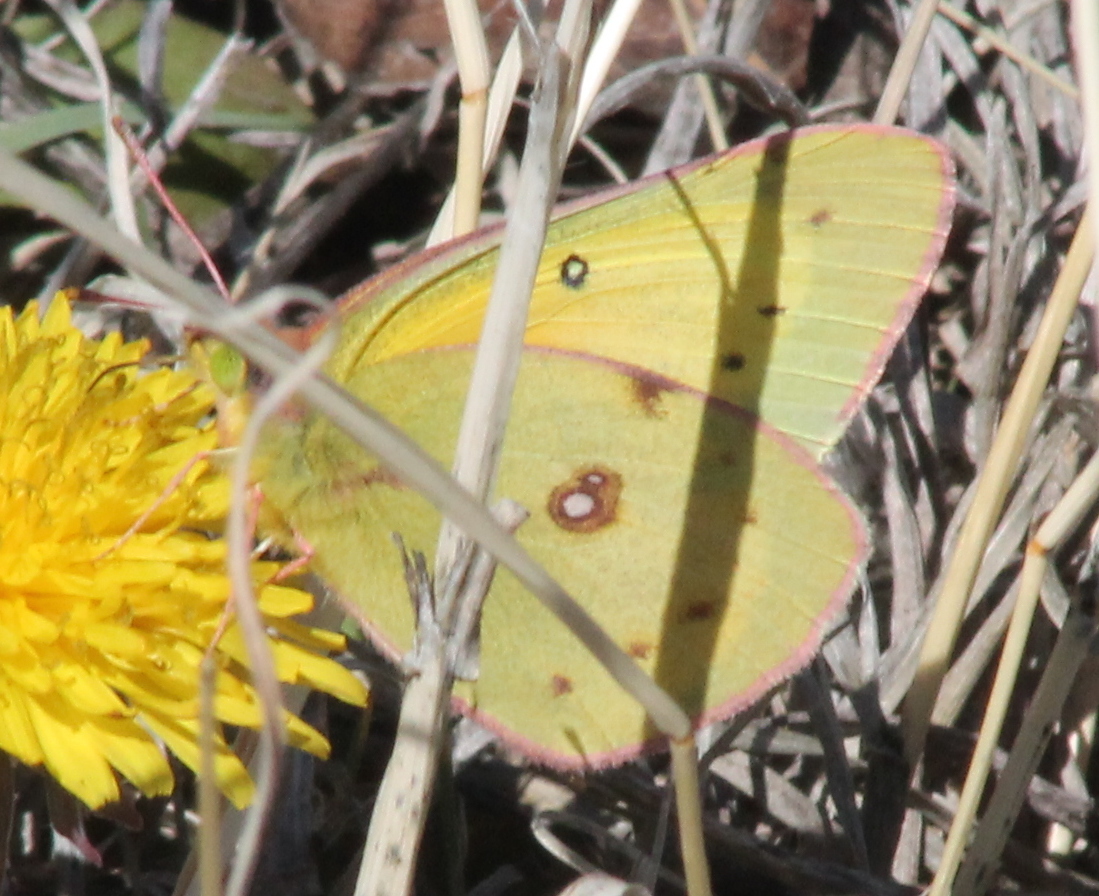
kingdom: Animalia
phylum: Arthropoda
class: Insecta
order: Lepidoptera
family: Pieridae
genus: Colias
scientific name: Colias eurytheme
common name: Alfalfa butterfly
